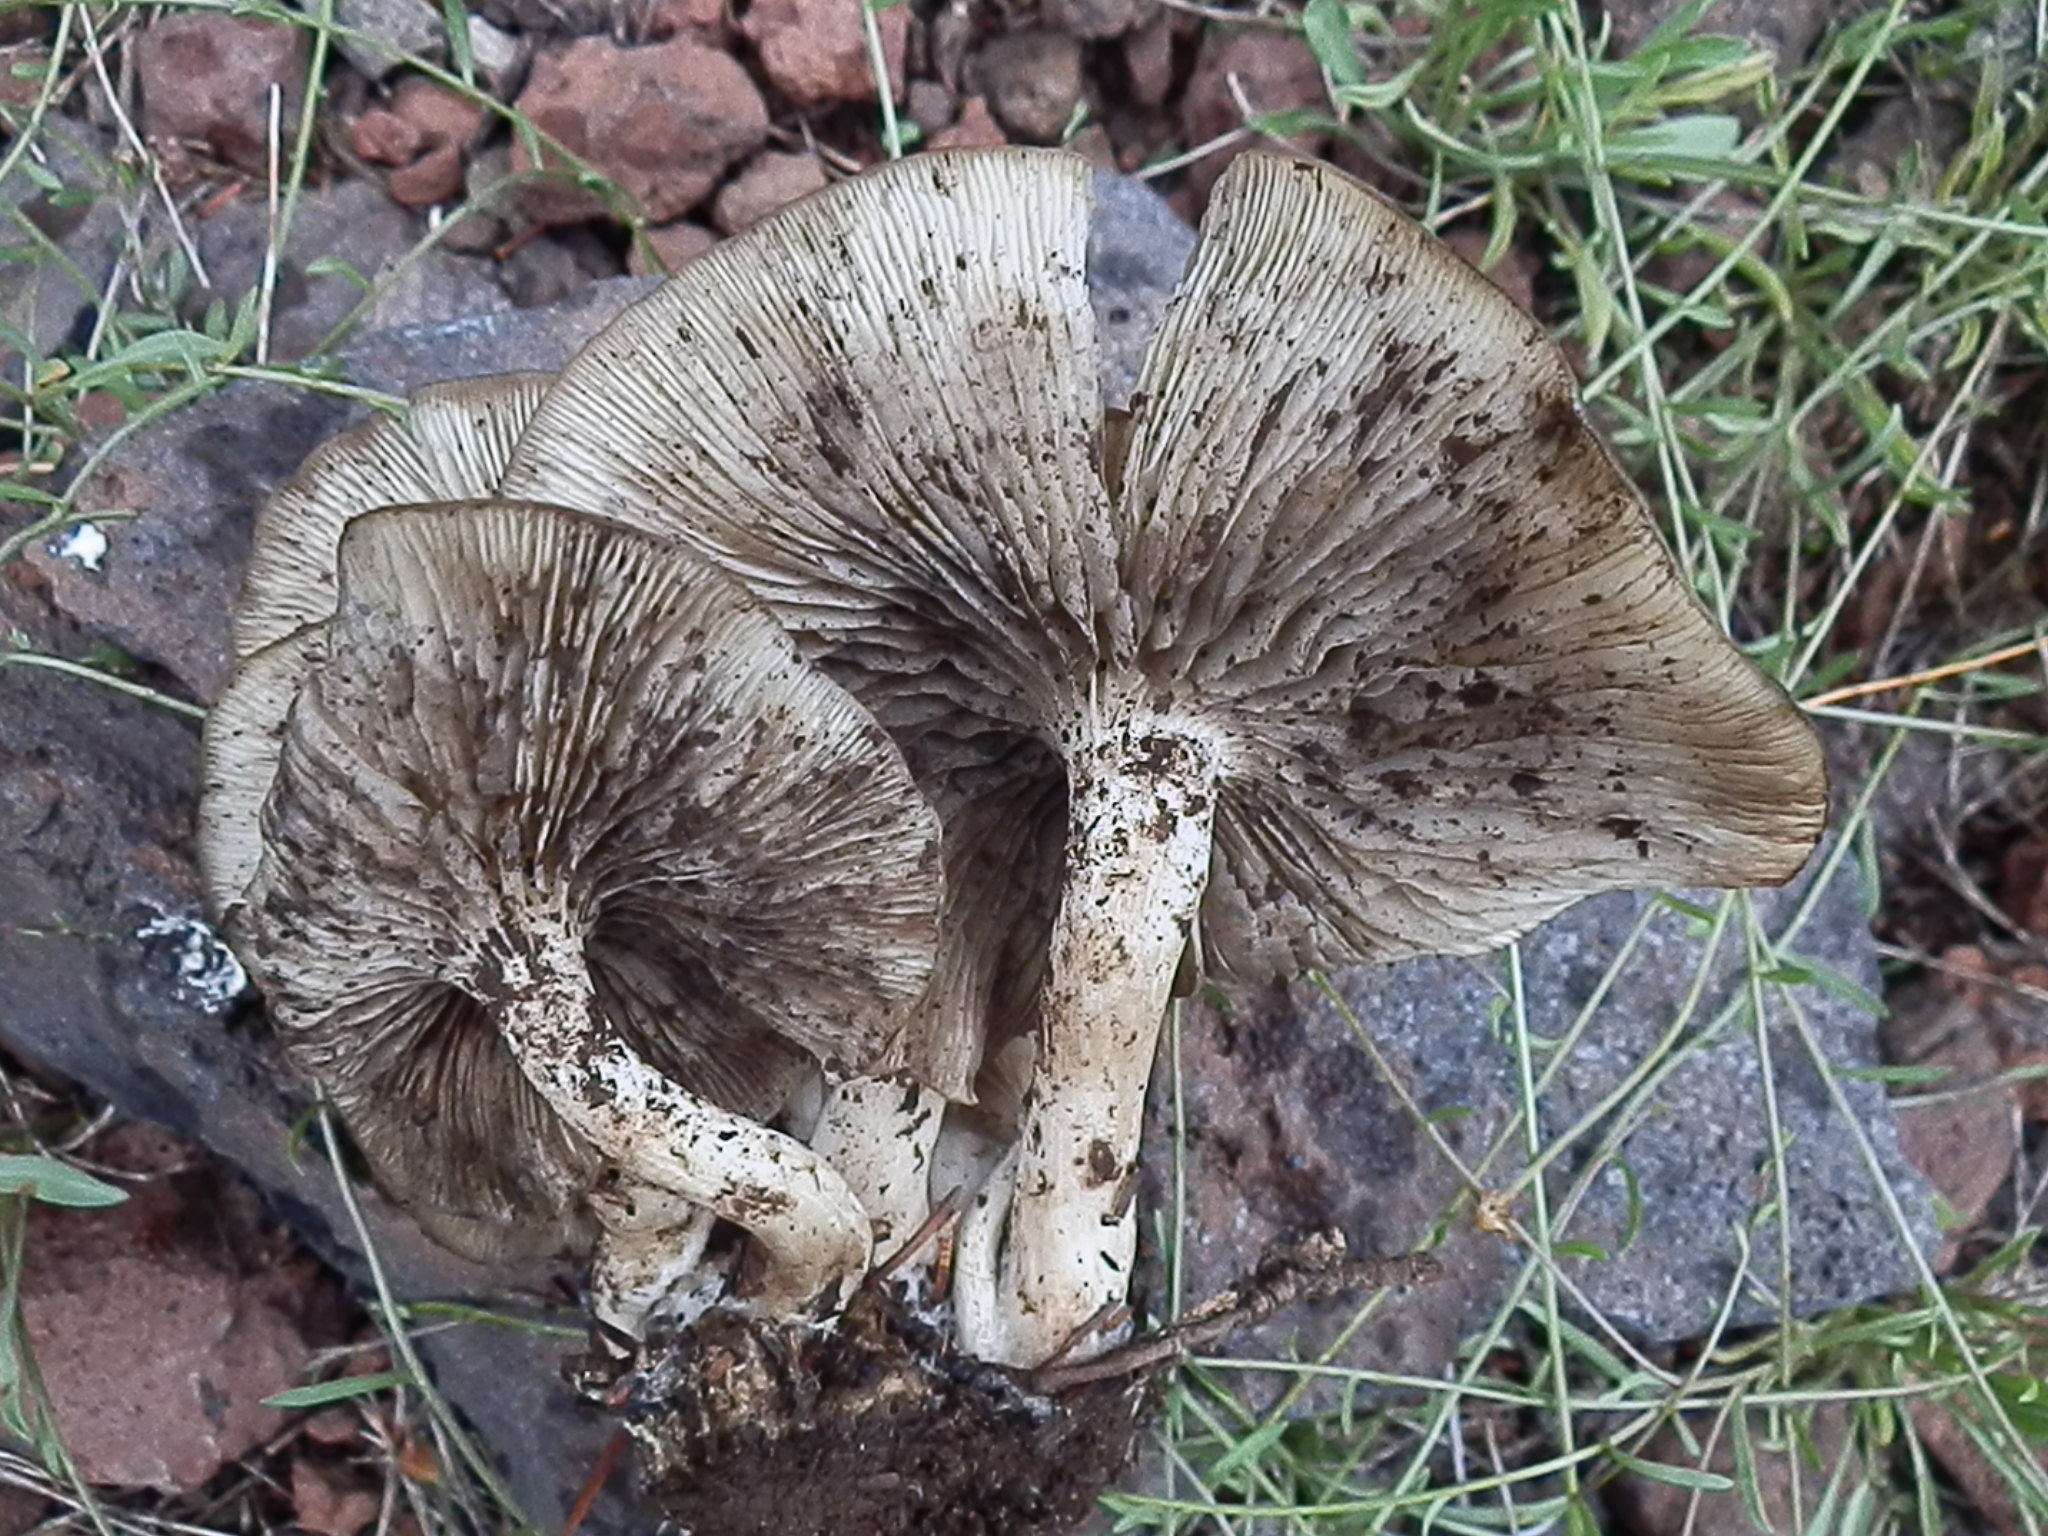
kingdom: Fungi
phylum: Basidiomycota
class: Agaricomycetes
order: Agaricales
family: Strophariaceae
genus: Hypholoma
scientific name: Hypholoma capnoides
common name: Conifer tuft
